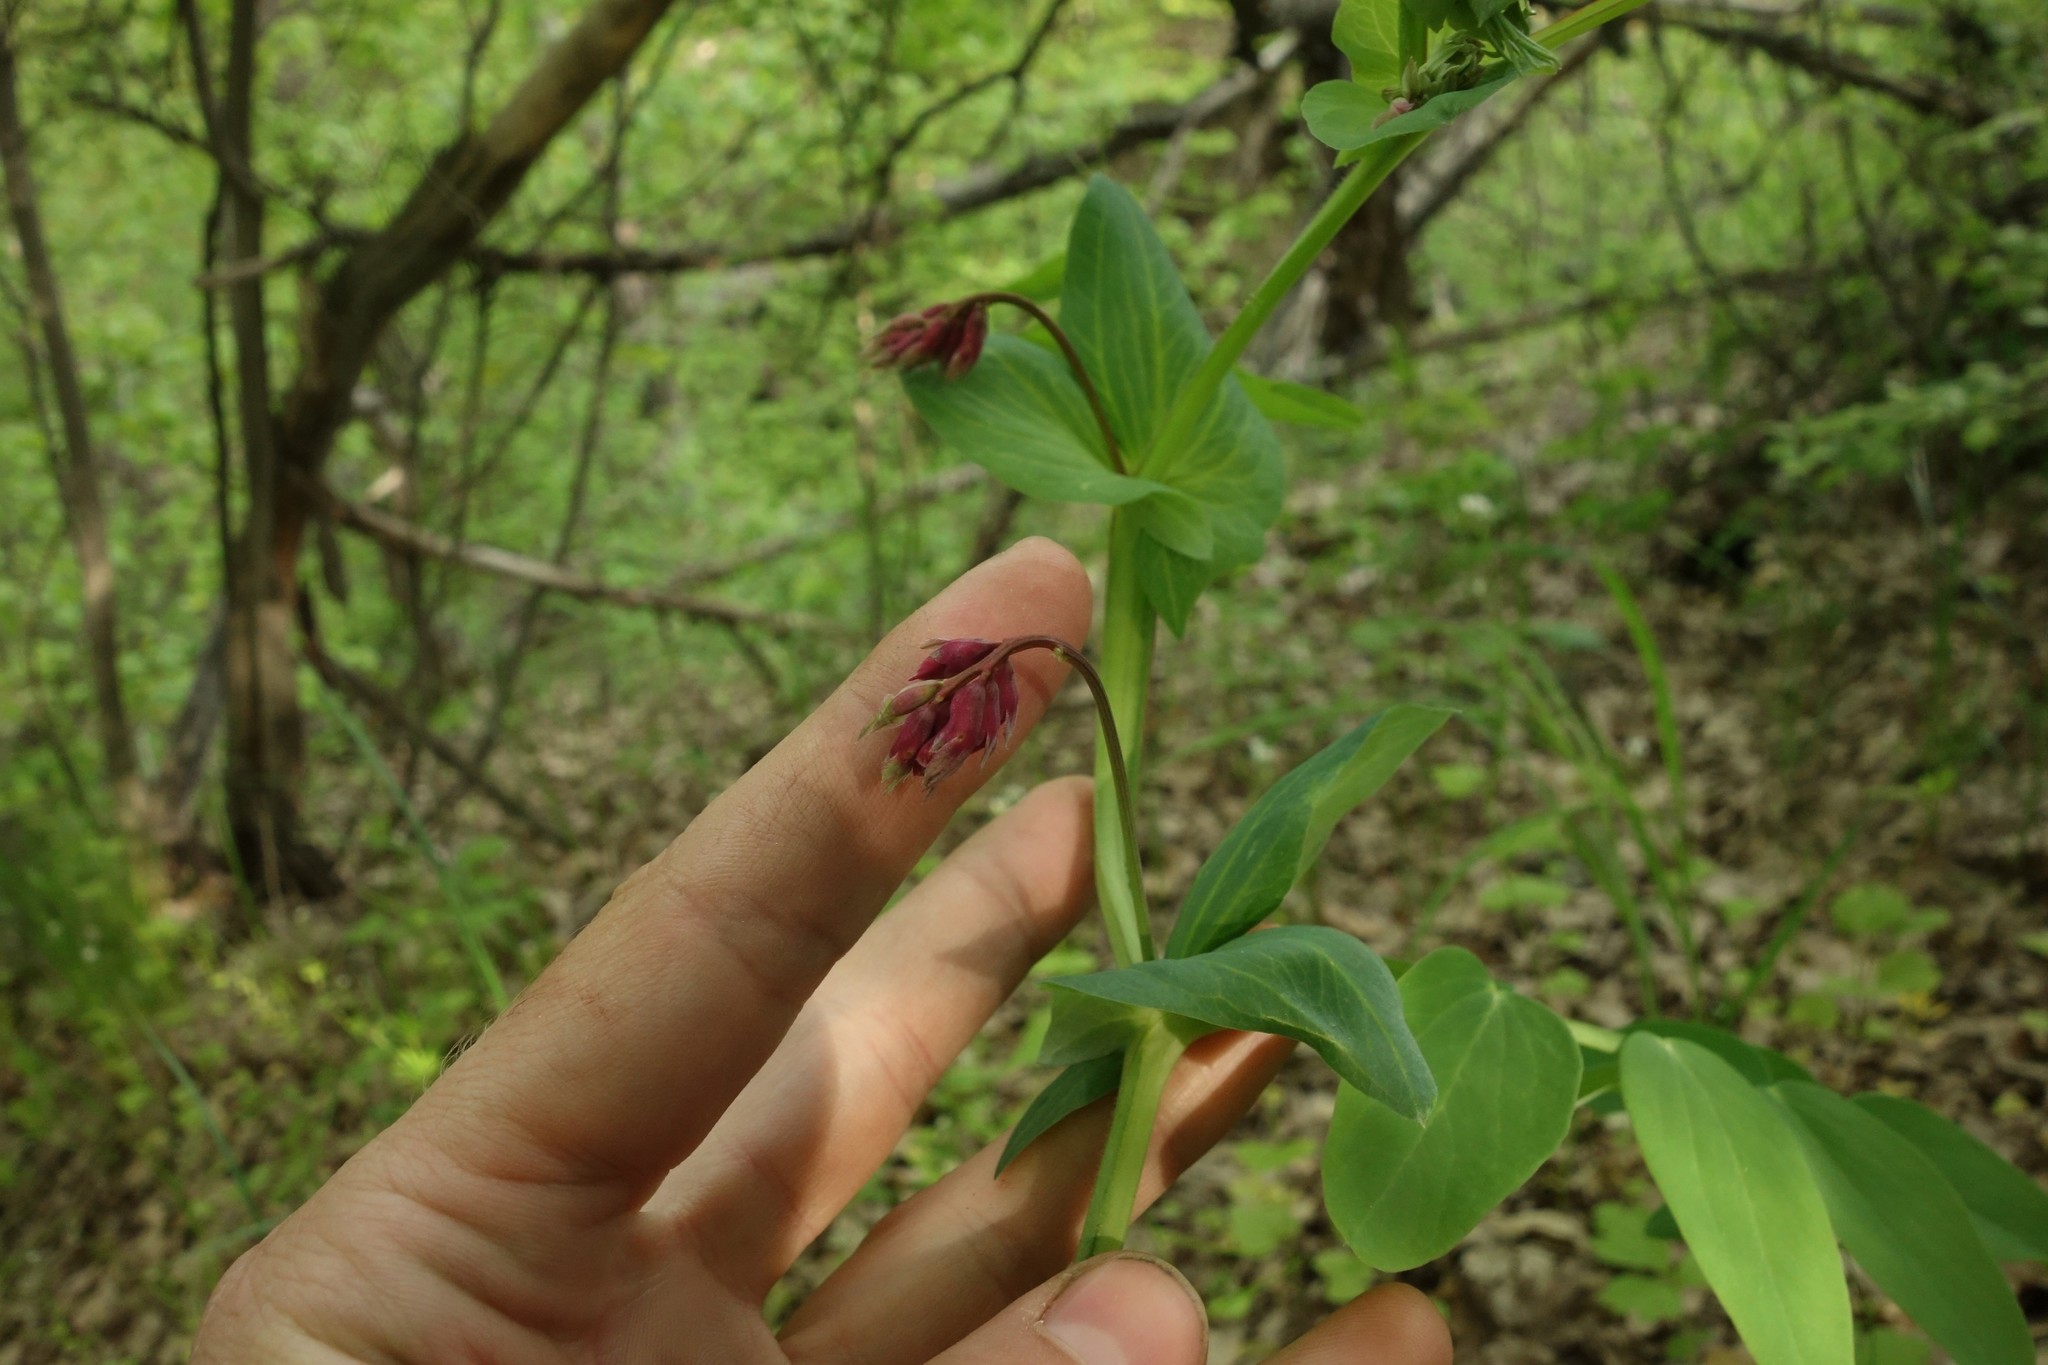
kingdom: Plantae
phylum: Tracheophyta
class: Magnoliopsida
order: Fabales
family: Fabaceae
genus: Lathyrus
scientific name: Lathyrus pisiformis
